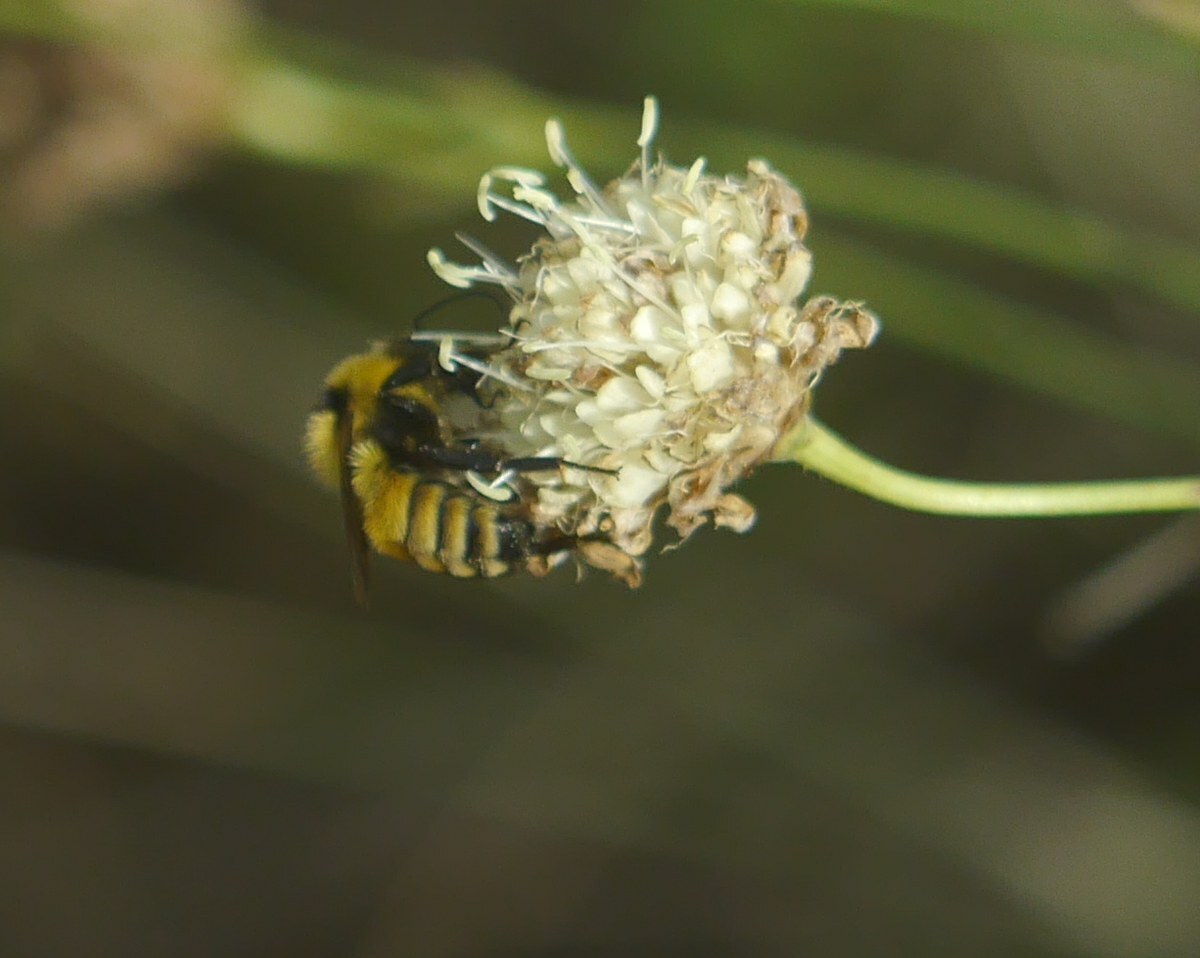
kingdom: Animalia
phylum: Arthropoda
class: Insecta
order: Hymenoptera
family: Apidae
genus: Bombus
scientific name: Bombus zonatus
